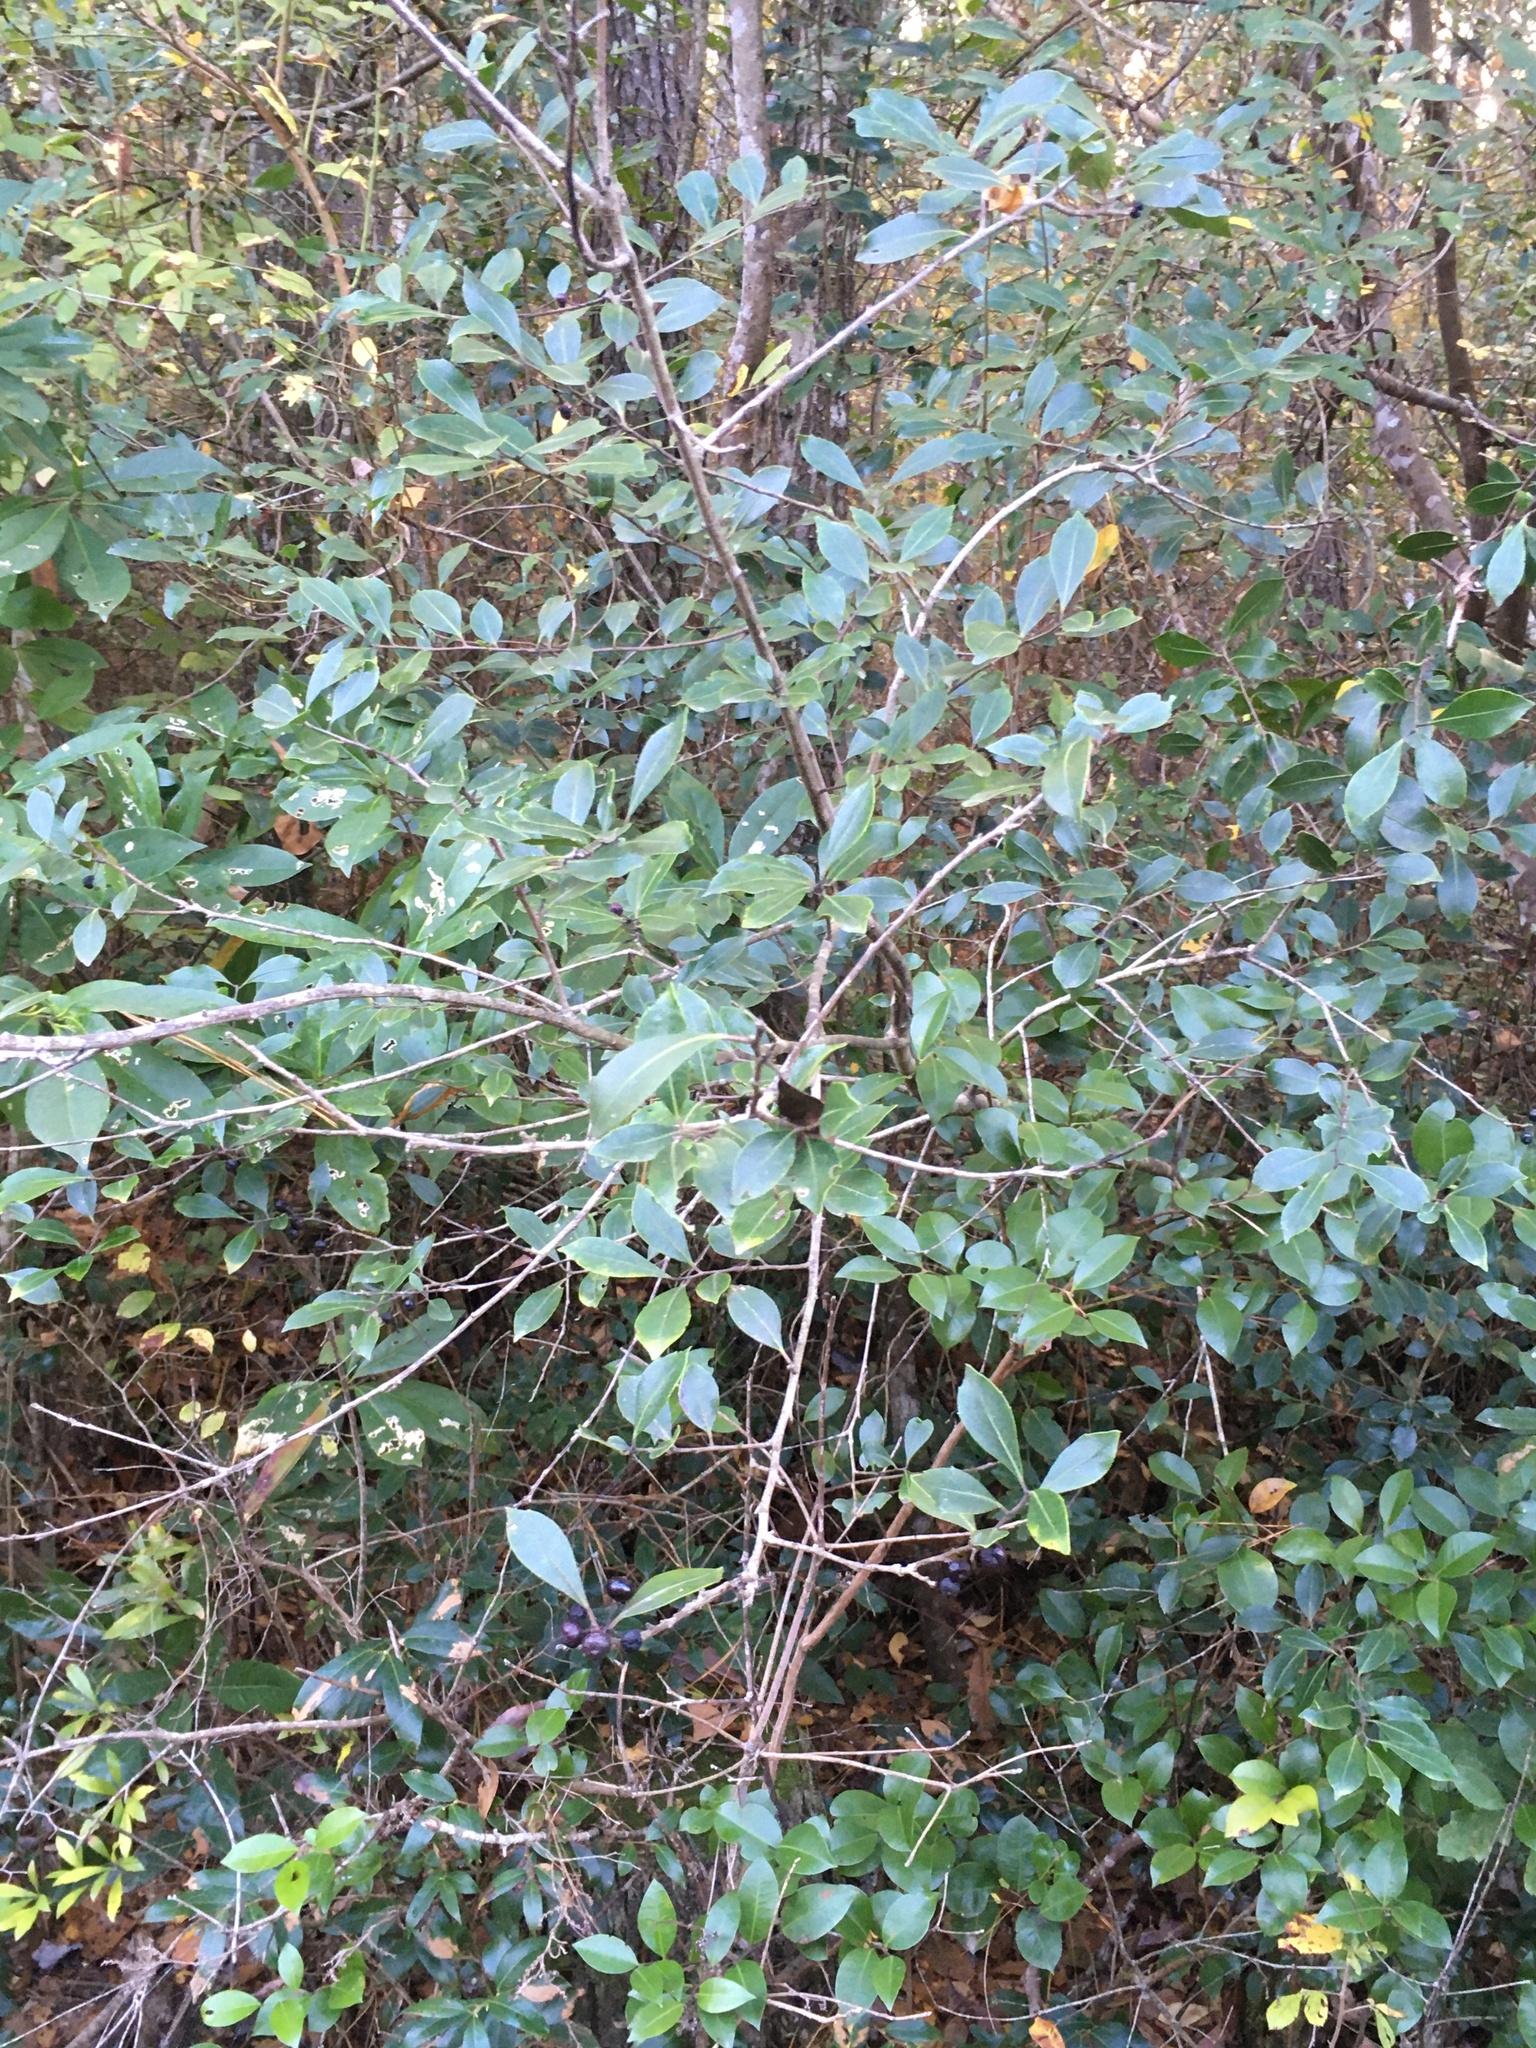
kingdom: Plantae
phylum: Tracheophyta
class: Magnoliopsida
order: Aquifoliales
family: Aquifoliaceae
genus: Ilex
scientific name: Ilex coriacea
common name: Sweet gallberry
